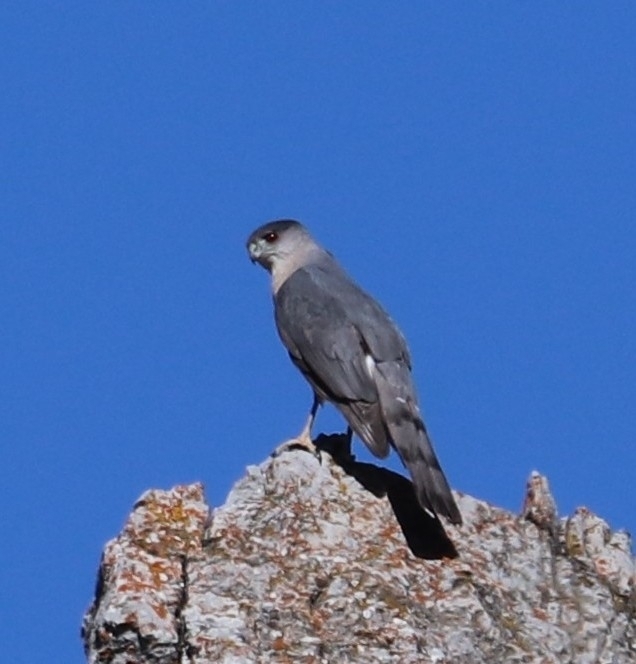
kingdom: Animalia
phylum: Chordata
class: Aves
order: Accipitriformes
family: Accipitridae
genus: Accipiter
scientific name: Accipiter cooperii
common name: Cooper's hawk
